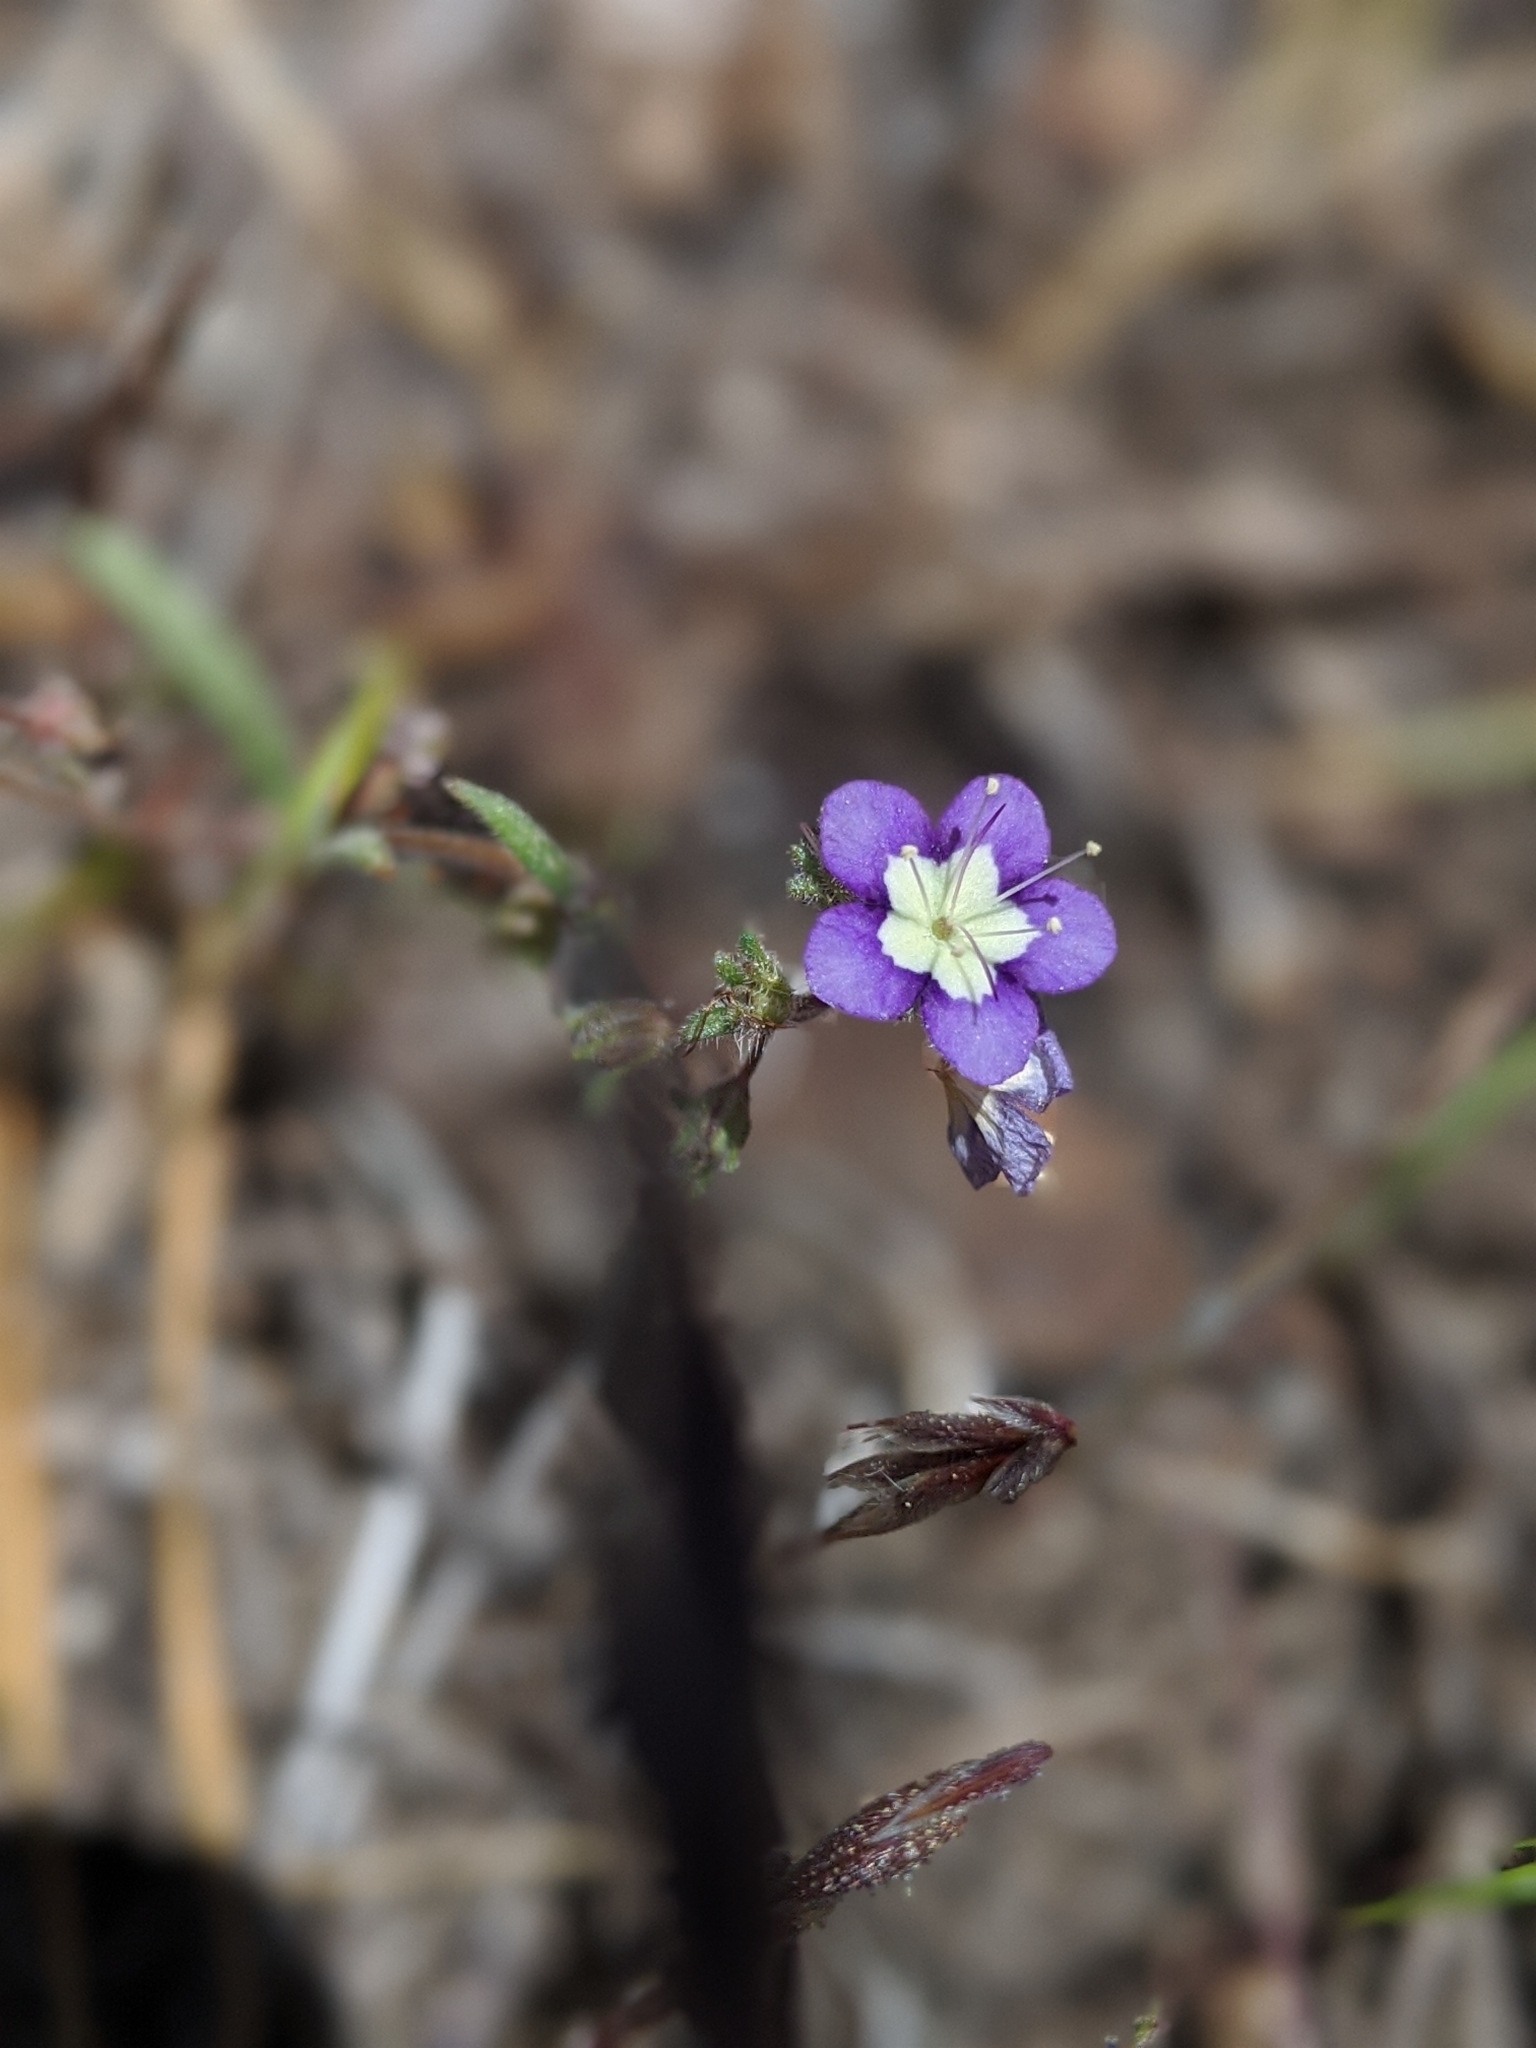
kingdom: Plantae
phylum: Tracheophyta
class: Magnoliopsida
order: Boraginales
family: Hydrophyllaceae
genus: Phacelia
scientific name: Phacelia orogenes
